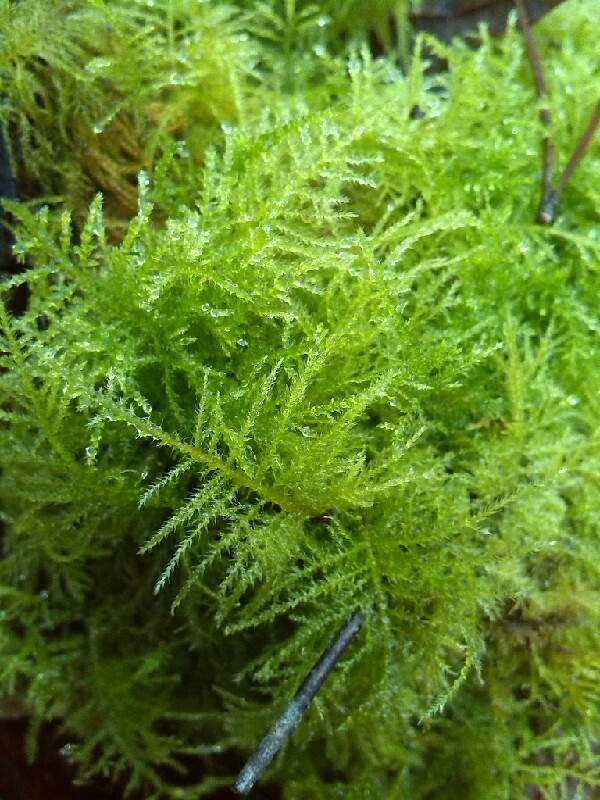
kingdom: Plantae
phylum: Bryophyta
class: Bryopsida
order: Hypnales
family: Brachytheciaceae
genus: Kindbergia
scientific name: Kindbergia praelonga
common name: Slender beaked moss
